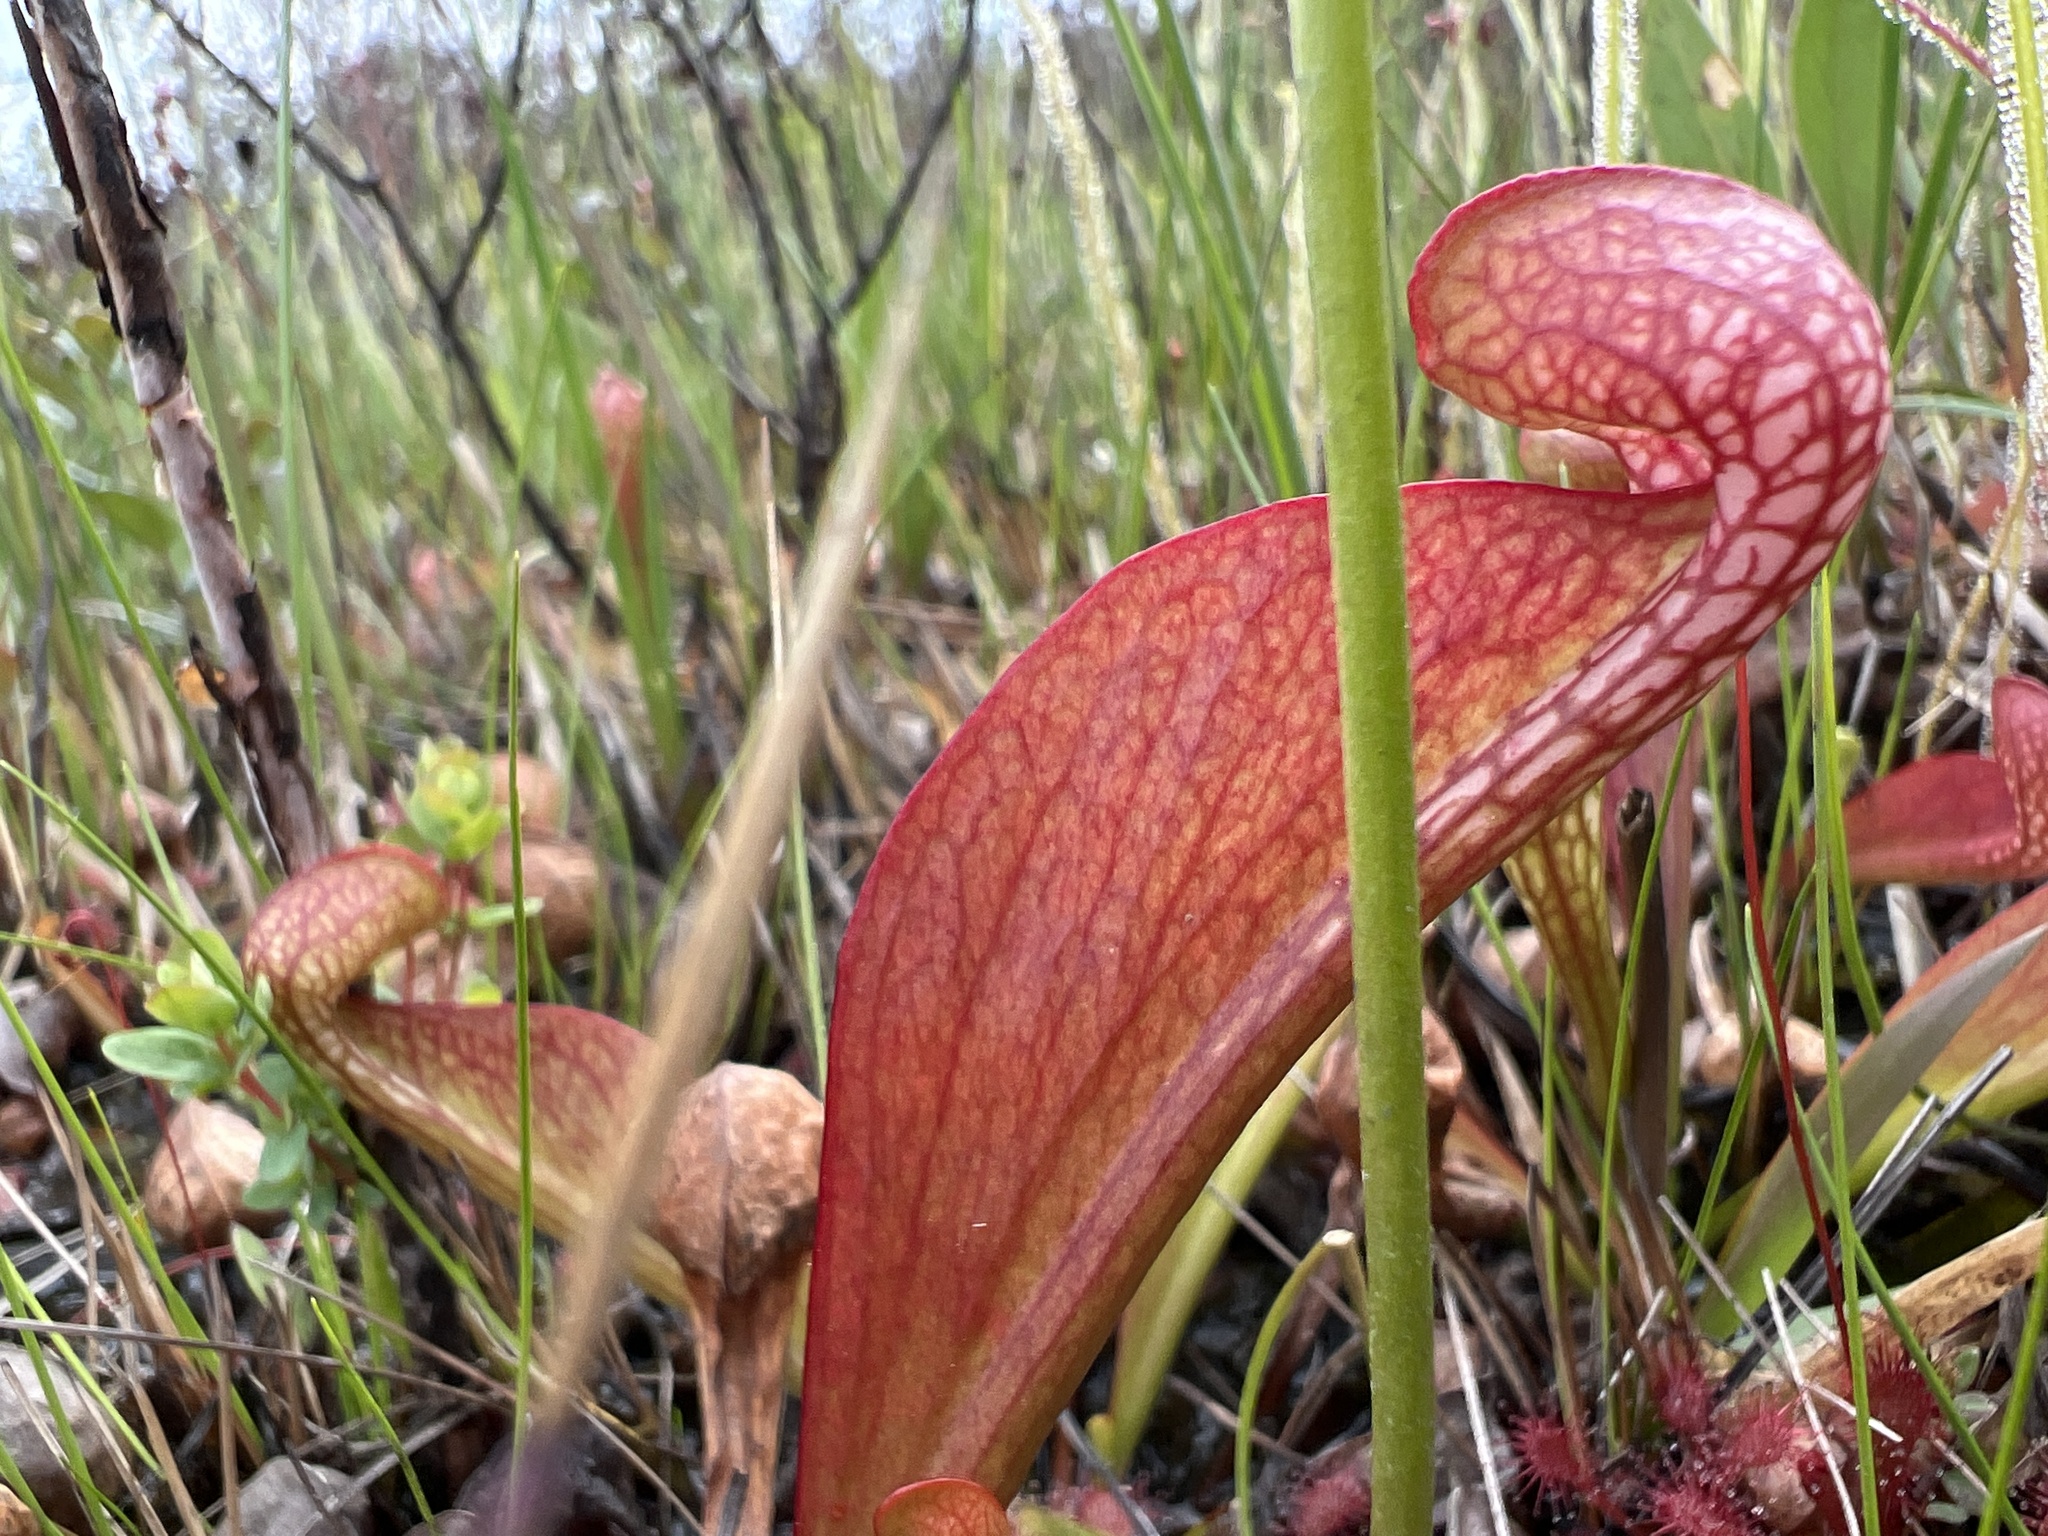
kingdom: Plantae
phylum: Tracheophyta
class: Magnoliopsida
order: Ericales
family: Sarraceniaceae
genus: Sarracenia
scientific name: Sarracenia psittacina
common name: Parrot pitcherplant
